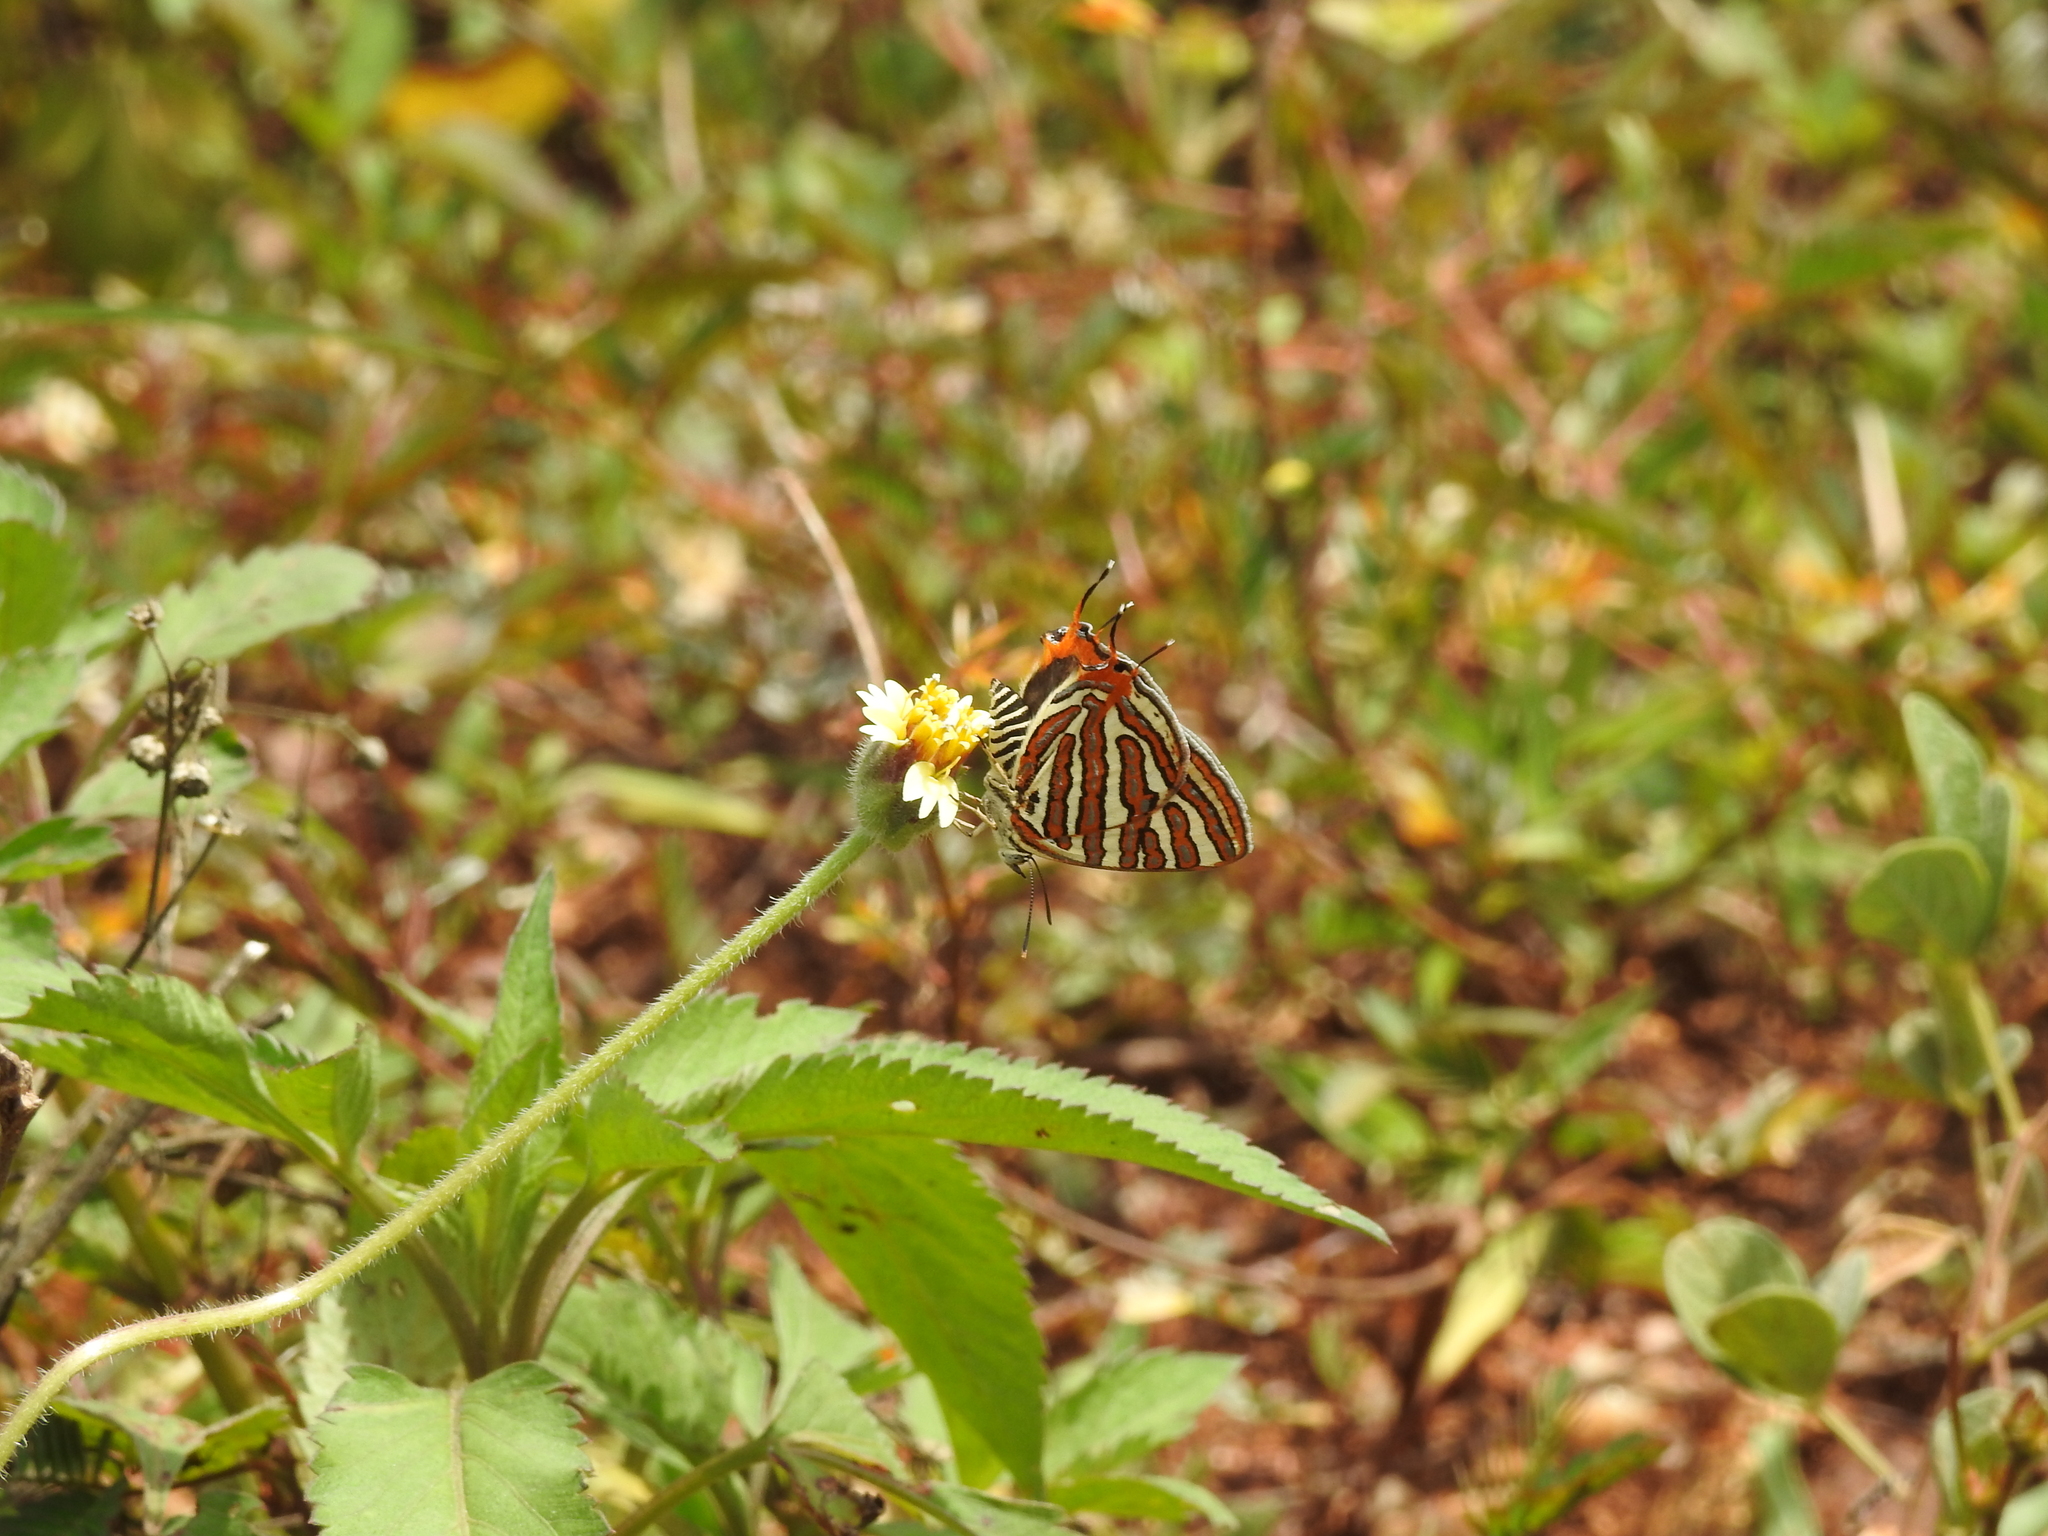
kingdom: Plantae
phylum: Tracheophyta
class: Magnoliopsida
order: Asterales
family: Asteraceae
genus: Tridax
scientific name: Tridax procumbens
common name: Coatbuttons
